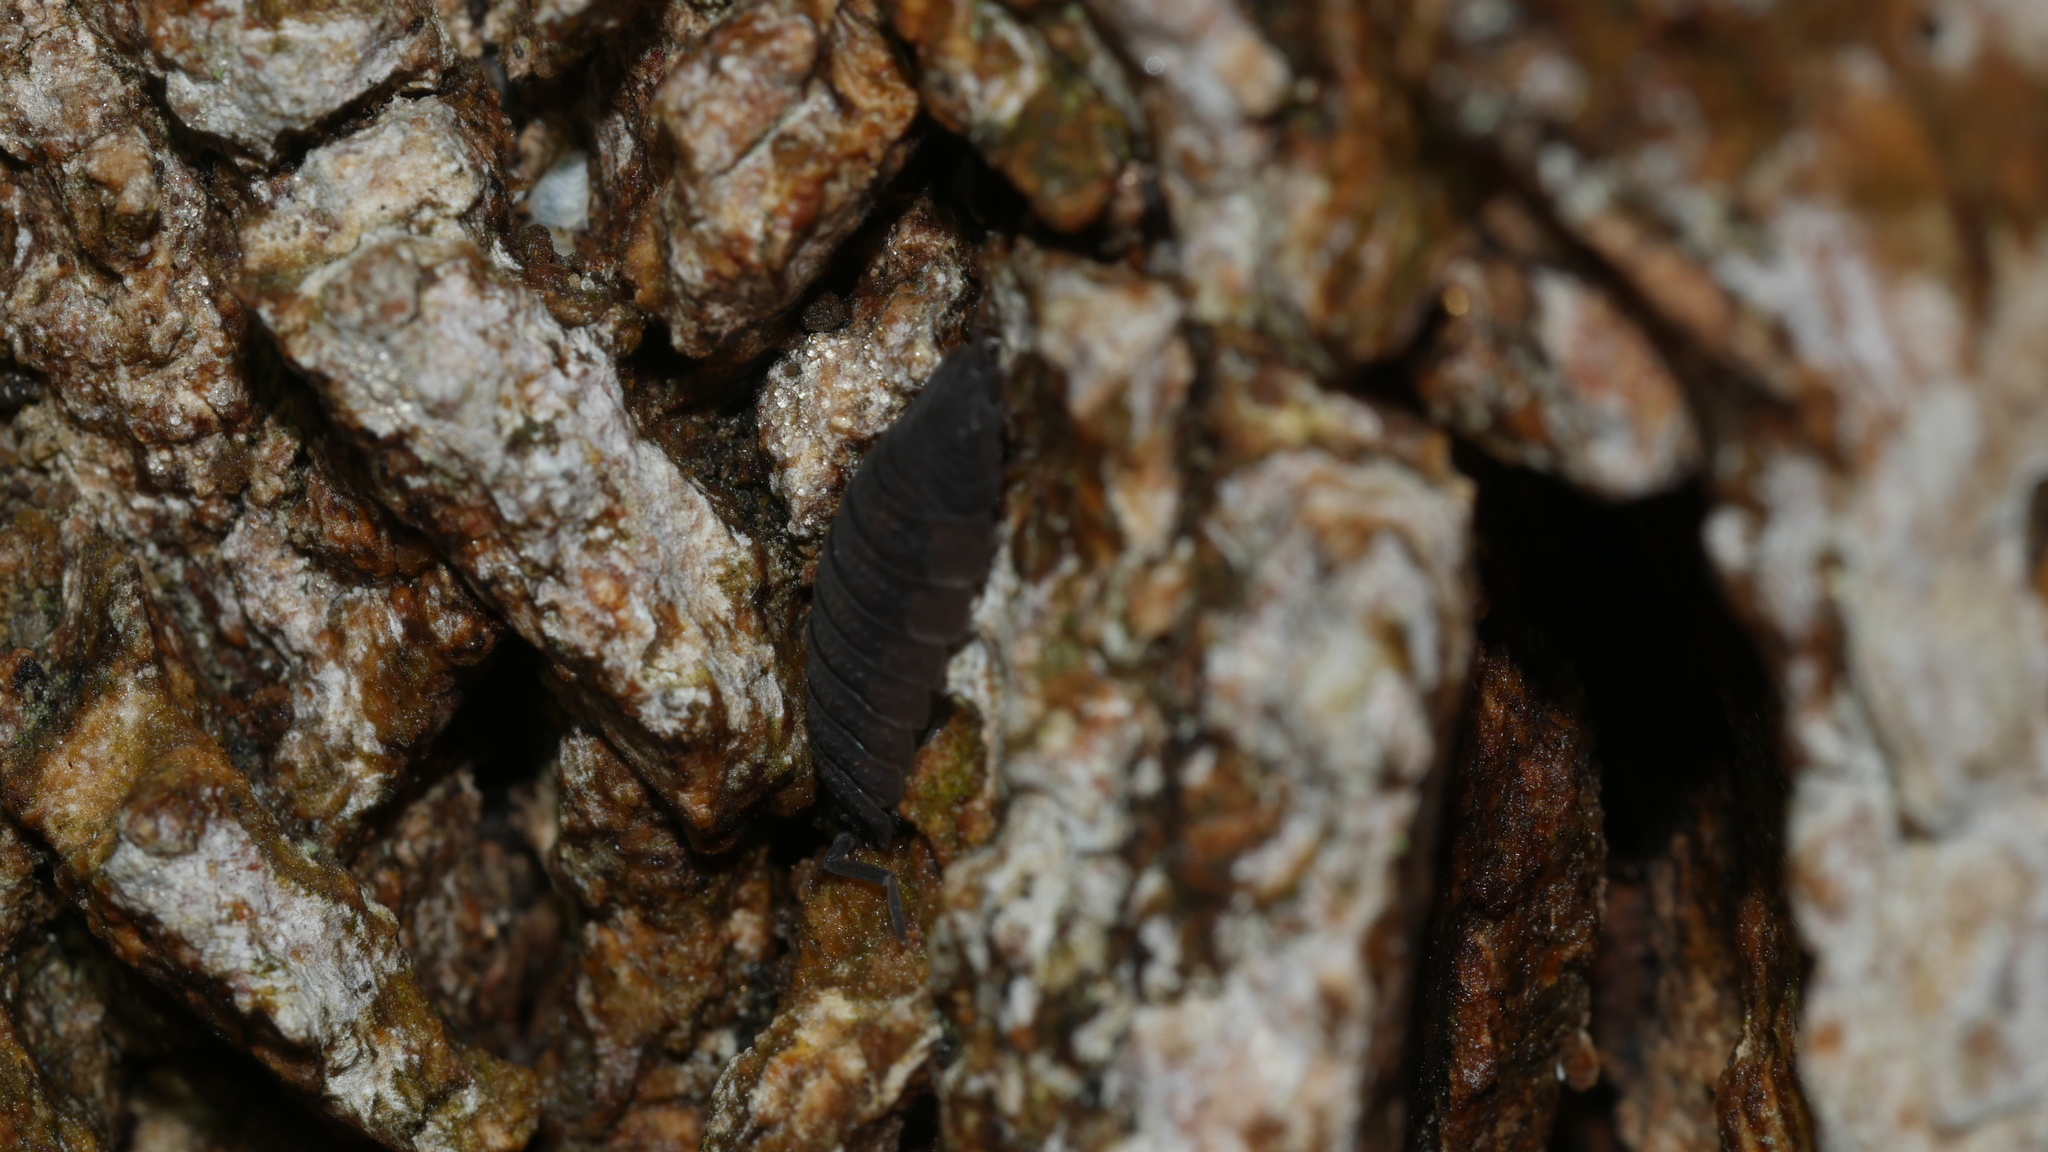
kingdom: Animalia
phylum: Arthropoda
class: Malacostraca
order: Isopoda
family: Porcellionidae
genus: Porcellio
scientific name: Porcellio scaber
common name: Common rough woodlouse
